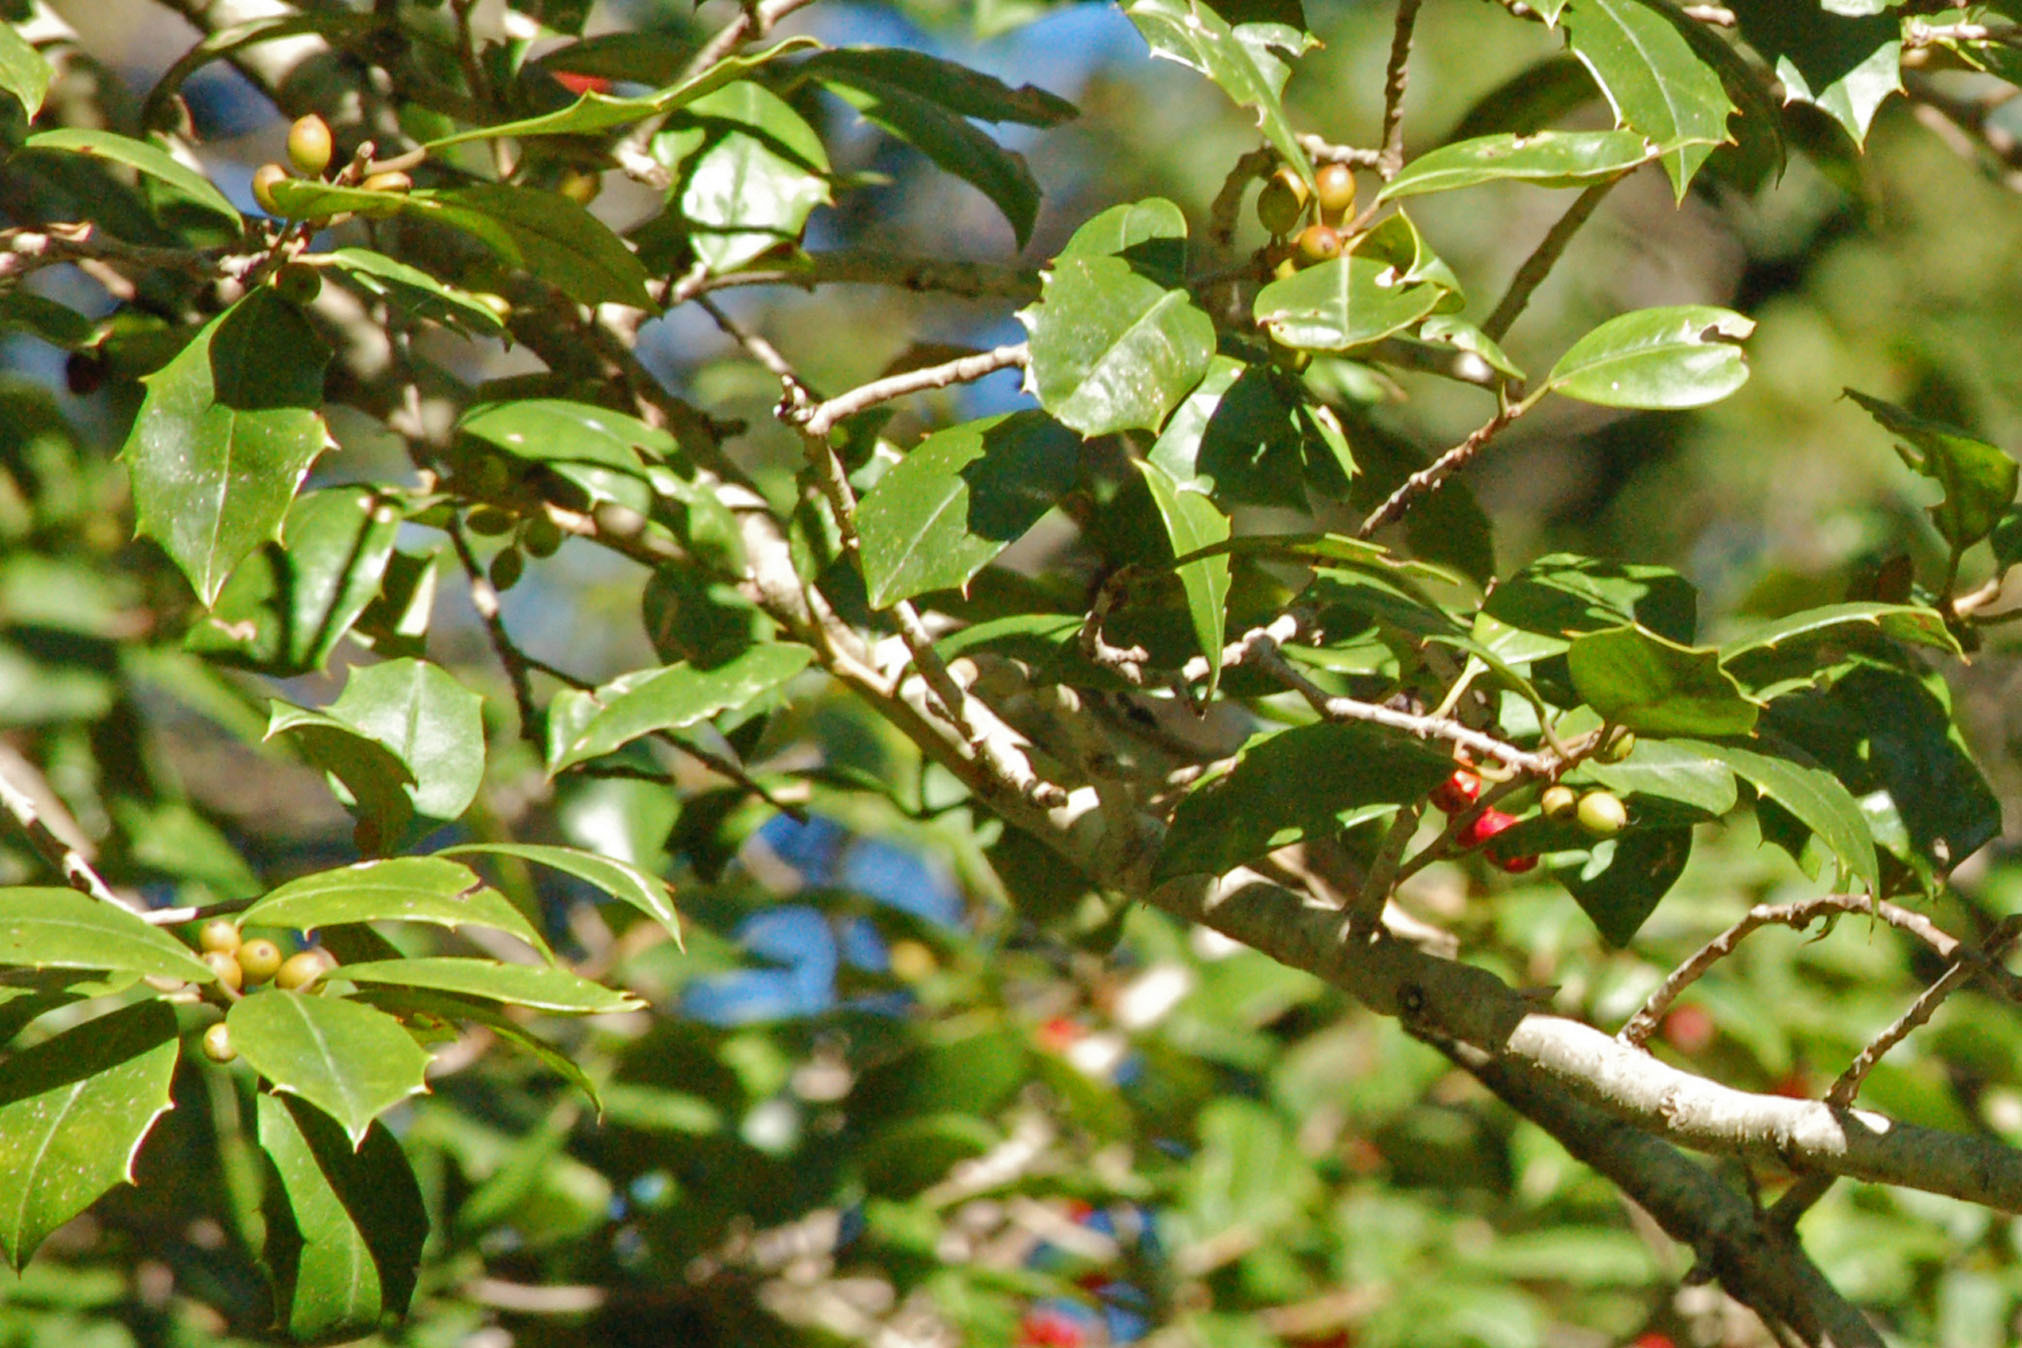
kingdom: Plantae
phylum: Tracheophyta
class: Magnoliopsida
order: Aquifoliales
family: Aquifoliaceae
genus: Ilex
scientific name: Ilex opaca
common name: American holly
